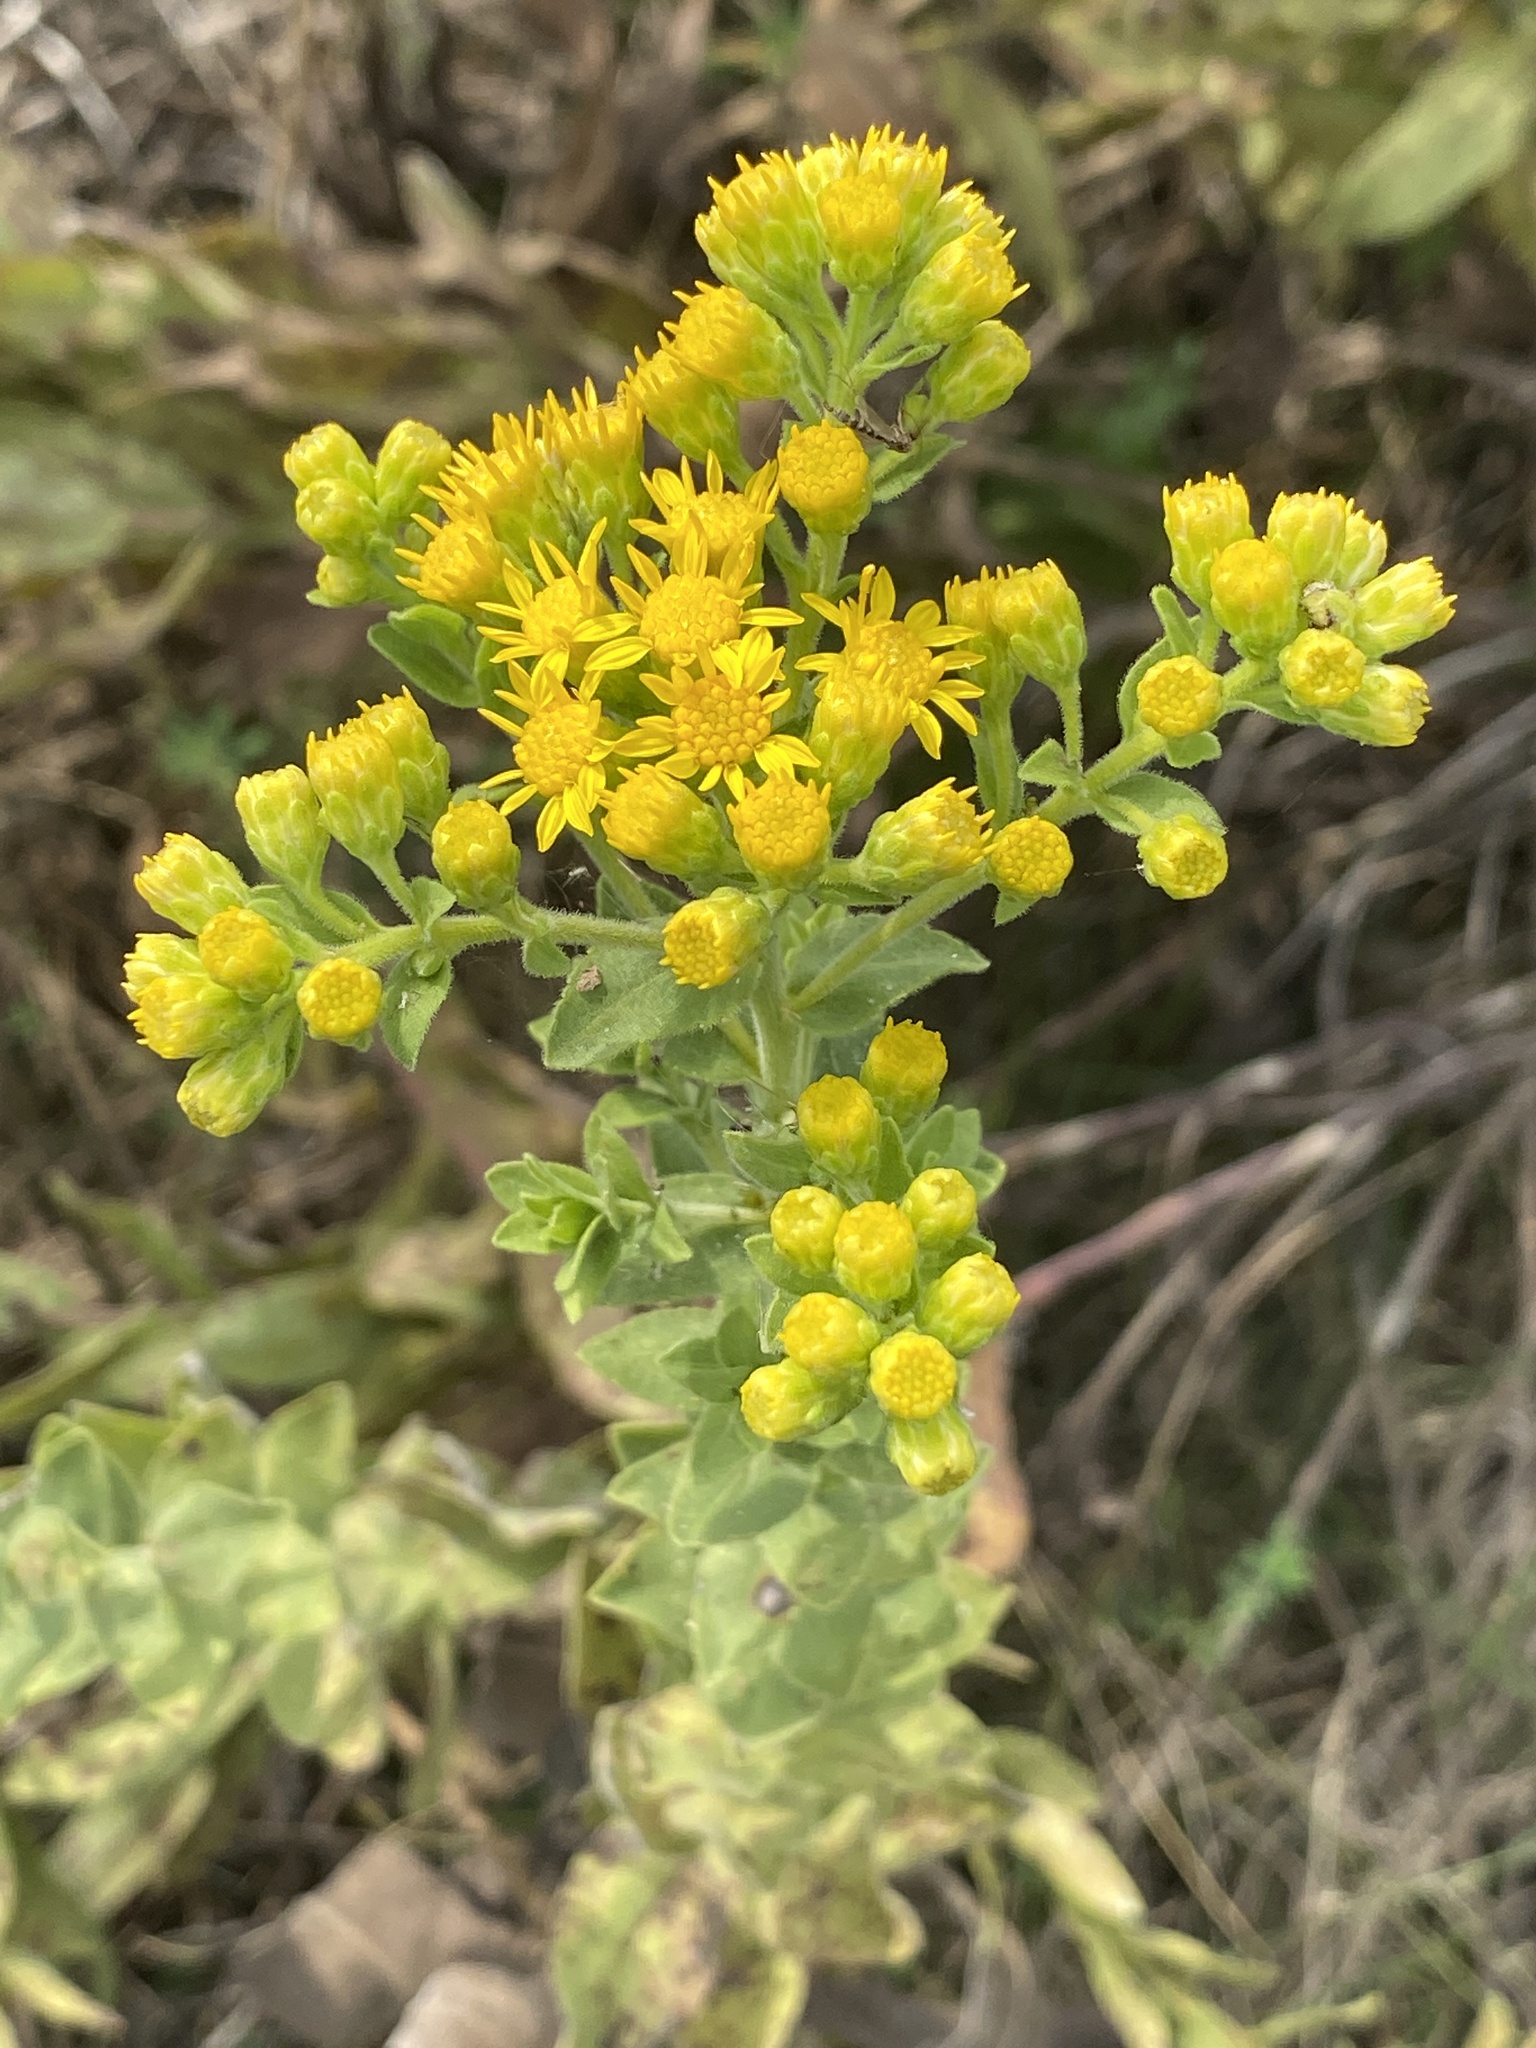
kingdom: Plantae
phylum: Tracheophyta
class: Magnoliopsida
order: Asterales
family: Asteraceae
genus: Solidago
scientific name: Solidago rigida
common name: Rigid goldenrod
